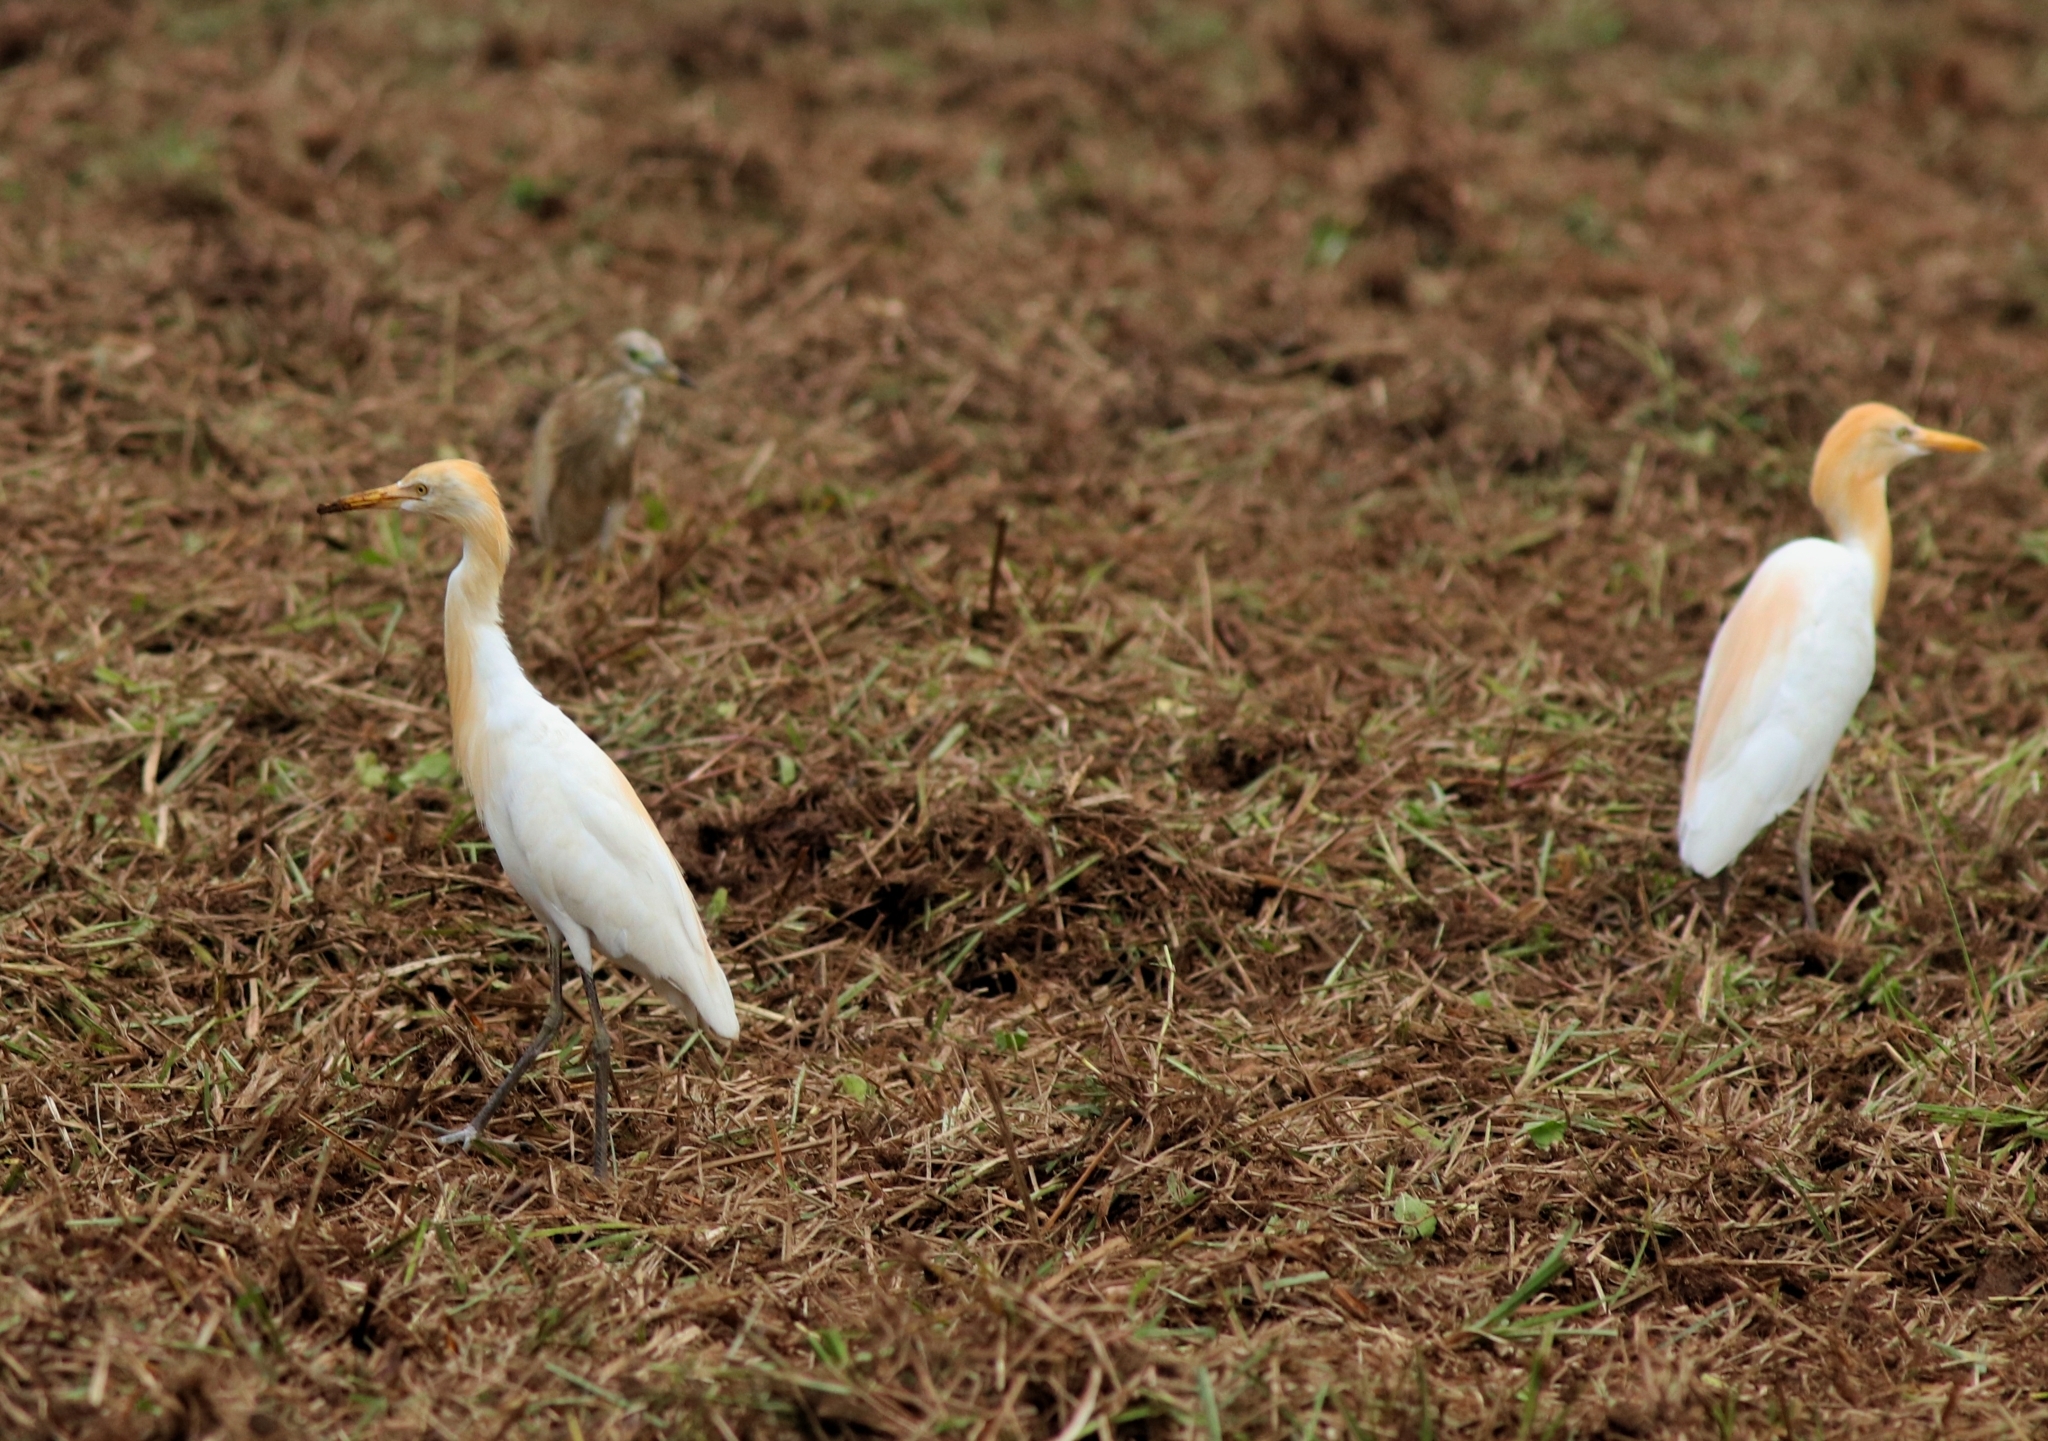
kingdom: Animalia
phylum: Chordata
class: Aves
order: Pelecaniformes
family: Ardeidae
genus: Bubulcus
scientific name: Bubulcus coromandus
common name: Eastern cattle egret
